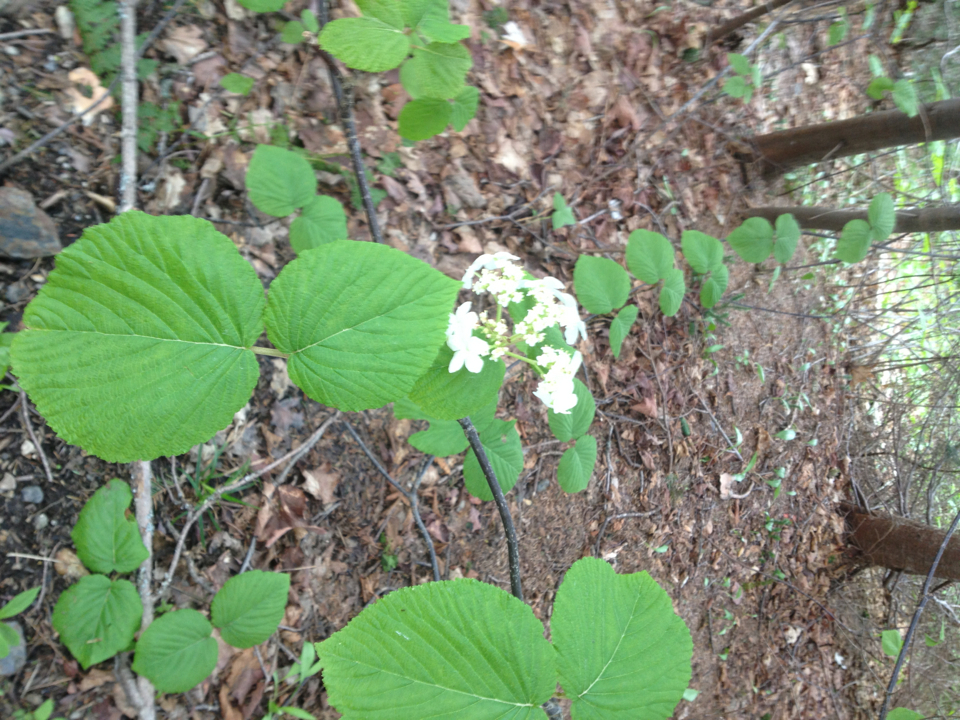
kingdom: Plantae
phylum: Tracheophyta
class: Magnoliopsida
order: Dipsacales
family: Viburnaceae
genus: Viburnum
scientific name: Viburnum lantanoides
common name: Hobblebush
